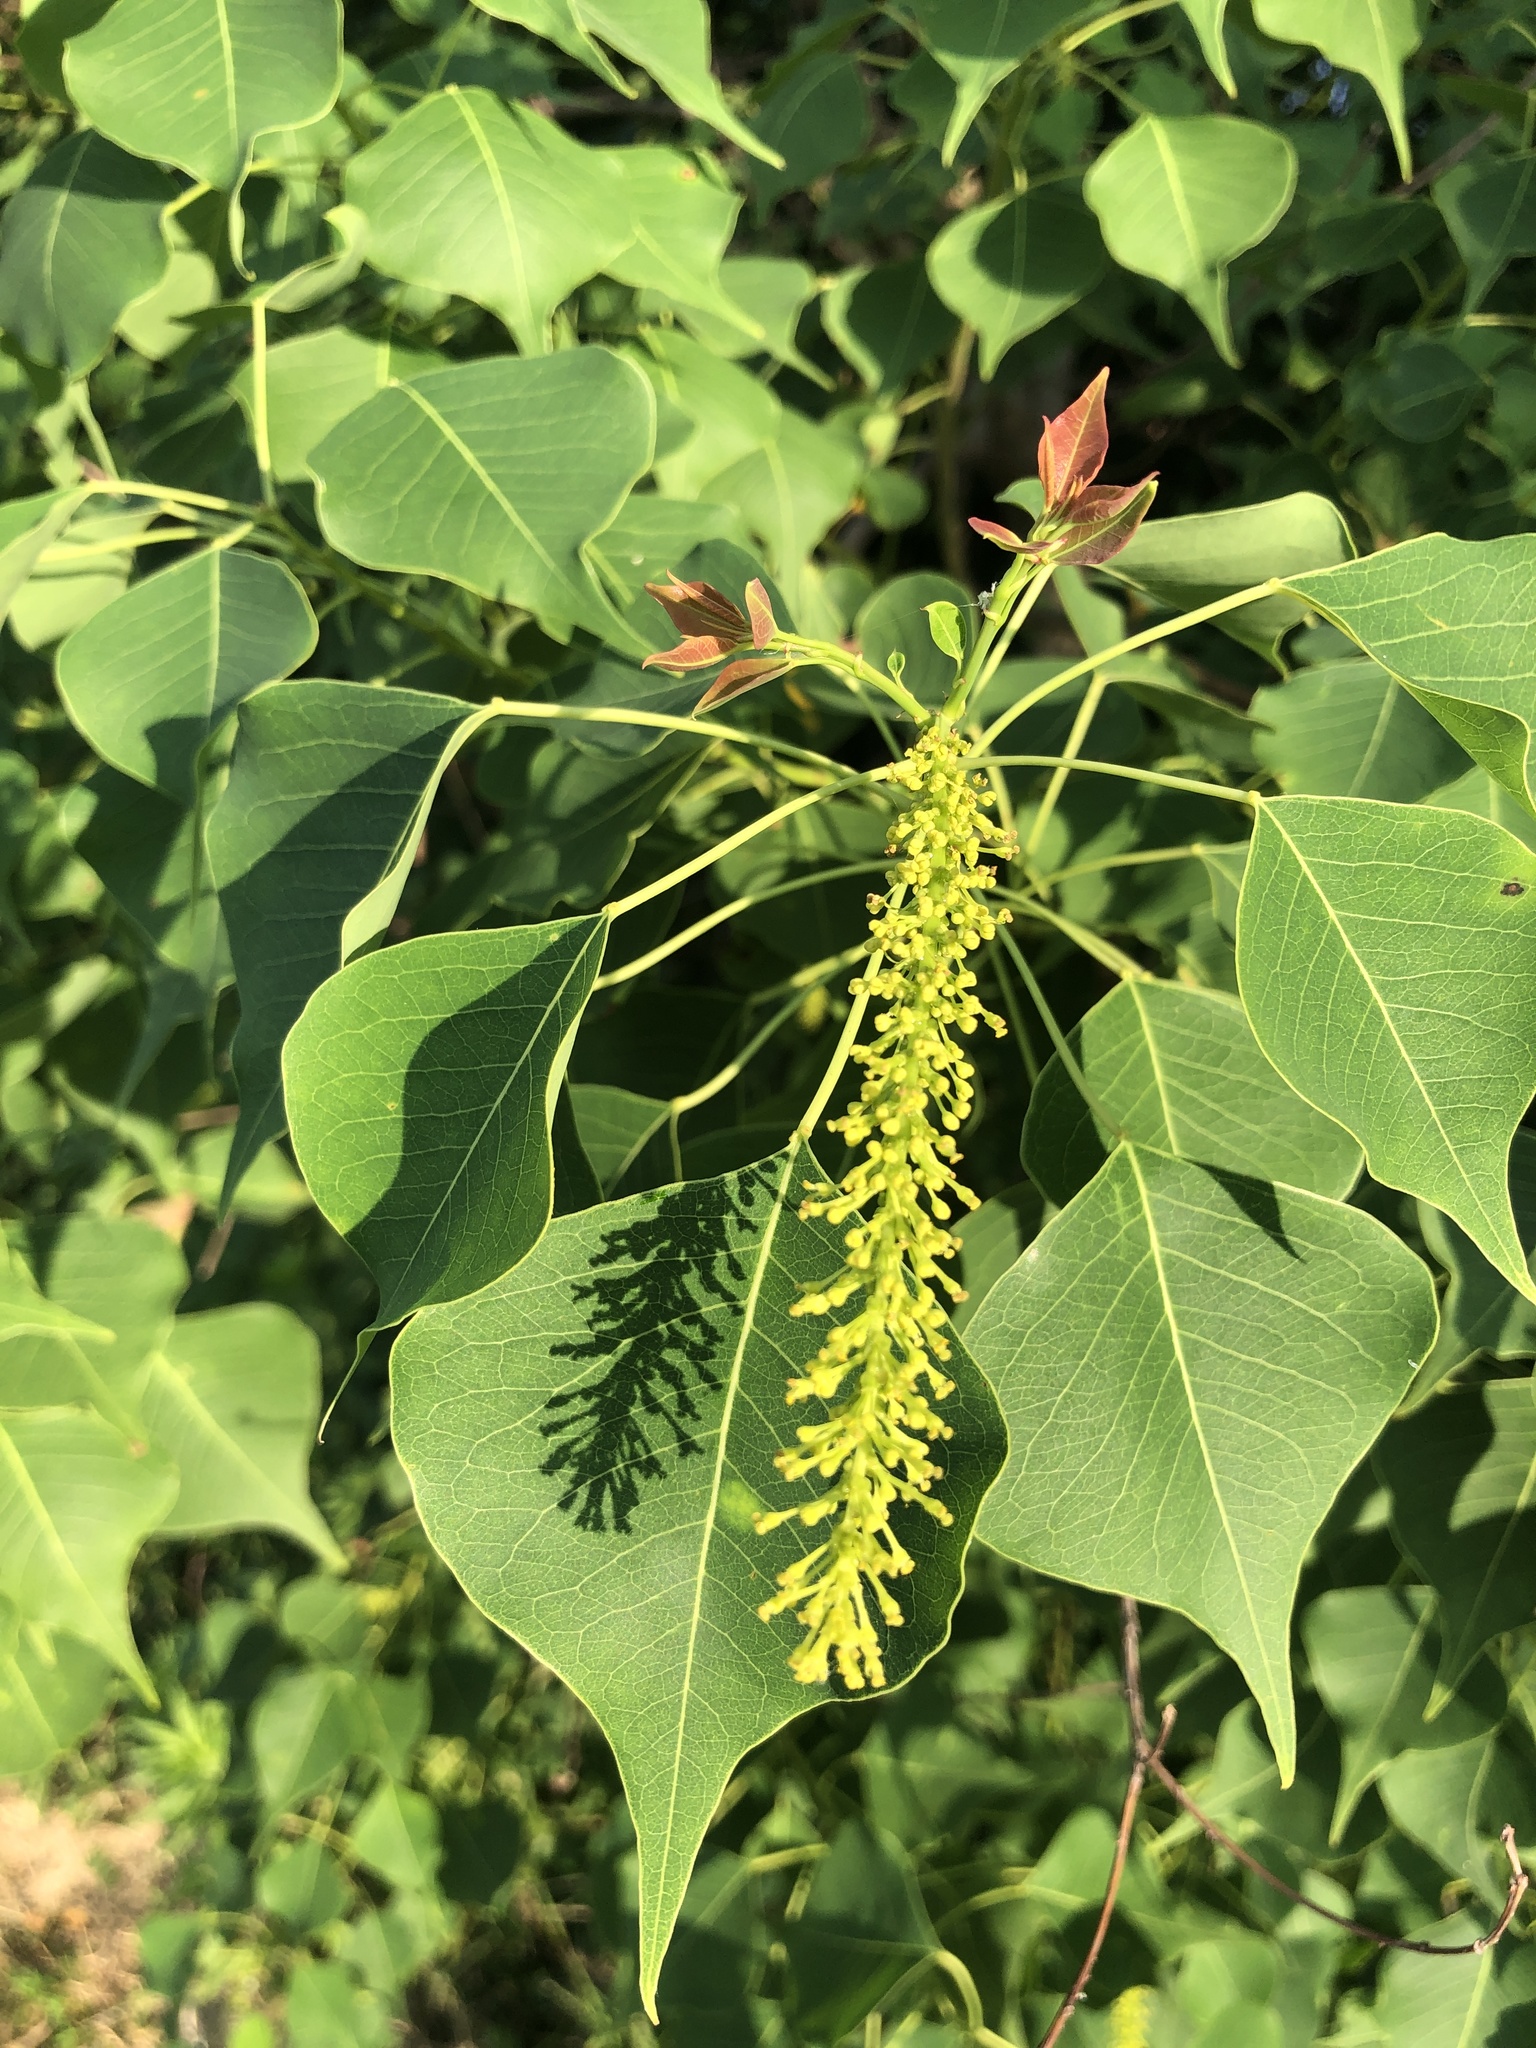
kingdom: Plantae
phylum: Tracheophyta
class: Magnoliopsida
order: Malpighiales
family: Euphorbiaceae
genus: Triadica
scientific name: Triadica sebifera
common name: Chinese tallow
